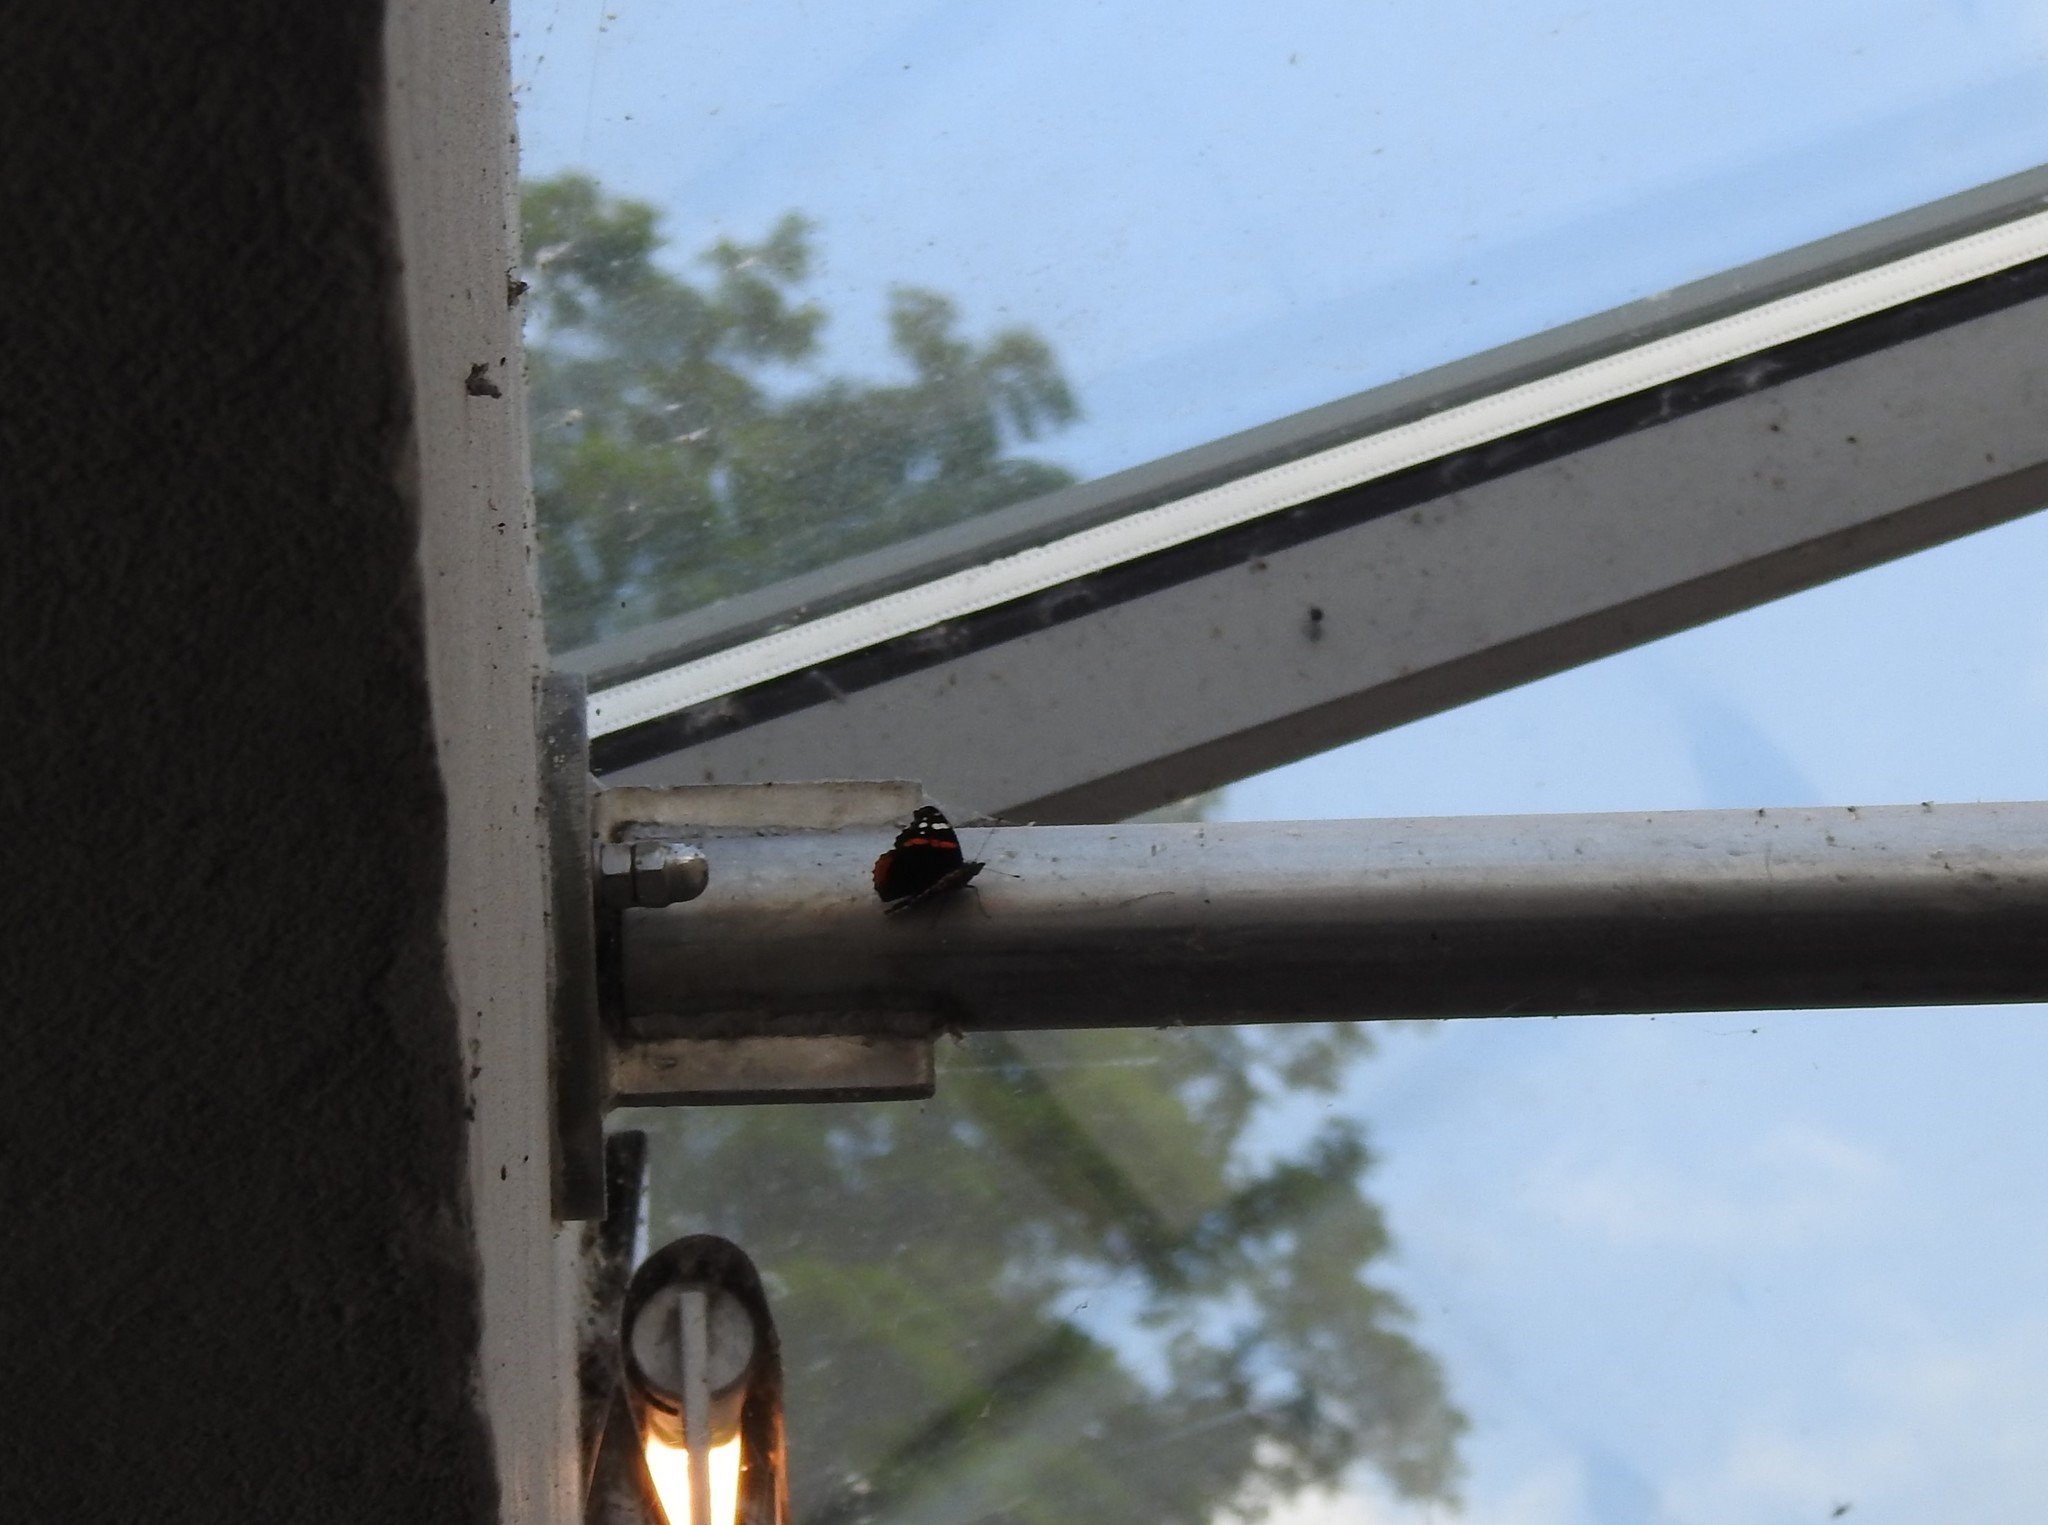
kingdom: Animalia
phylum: Arthropoda
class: Insecta
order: Lepidoptera
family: Nymphalidae
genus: Vanessa
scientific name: Vanessa atalanta
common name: Red admiral
